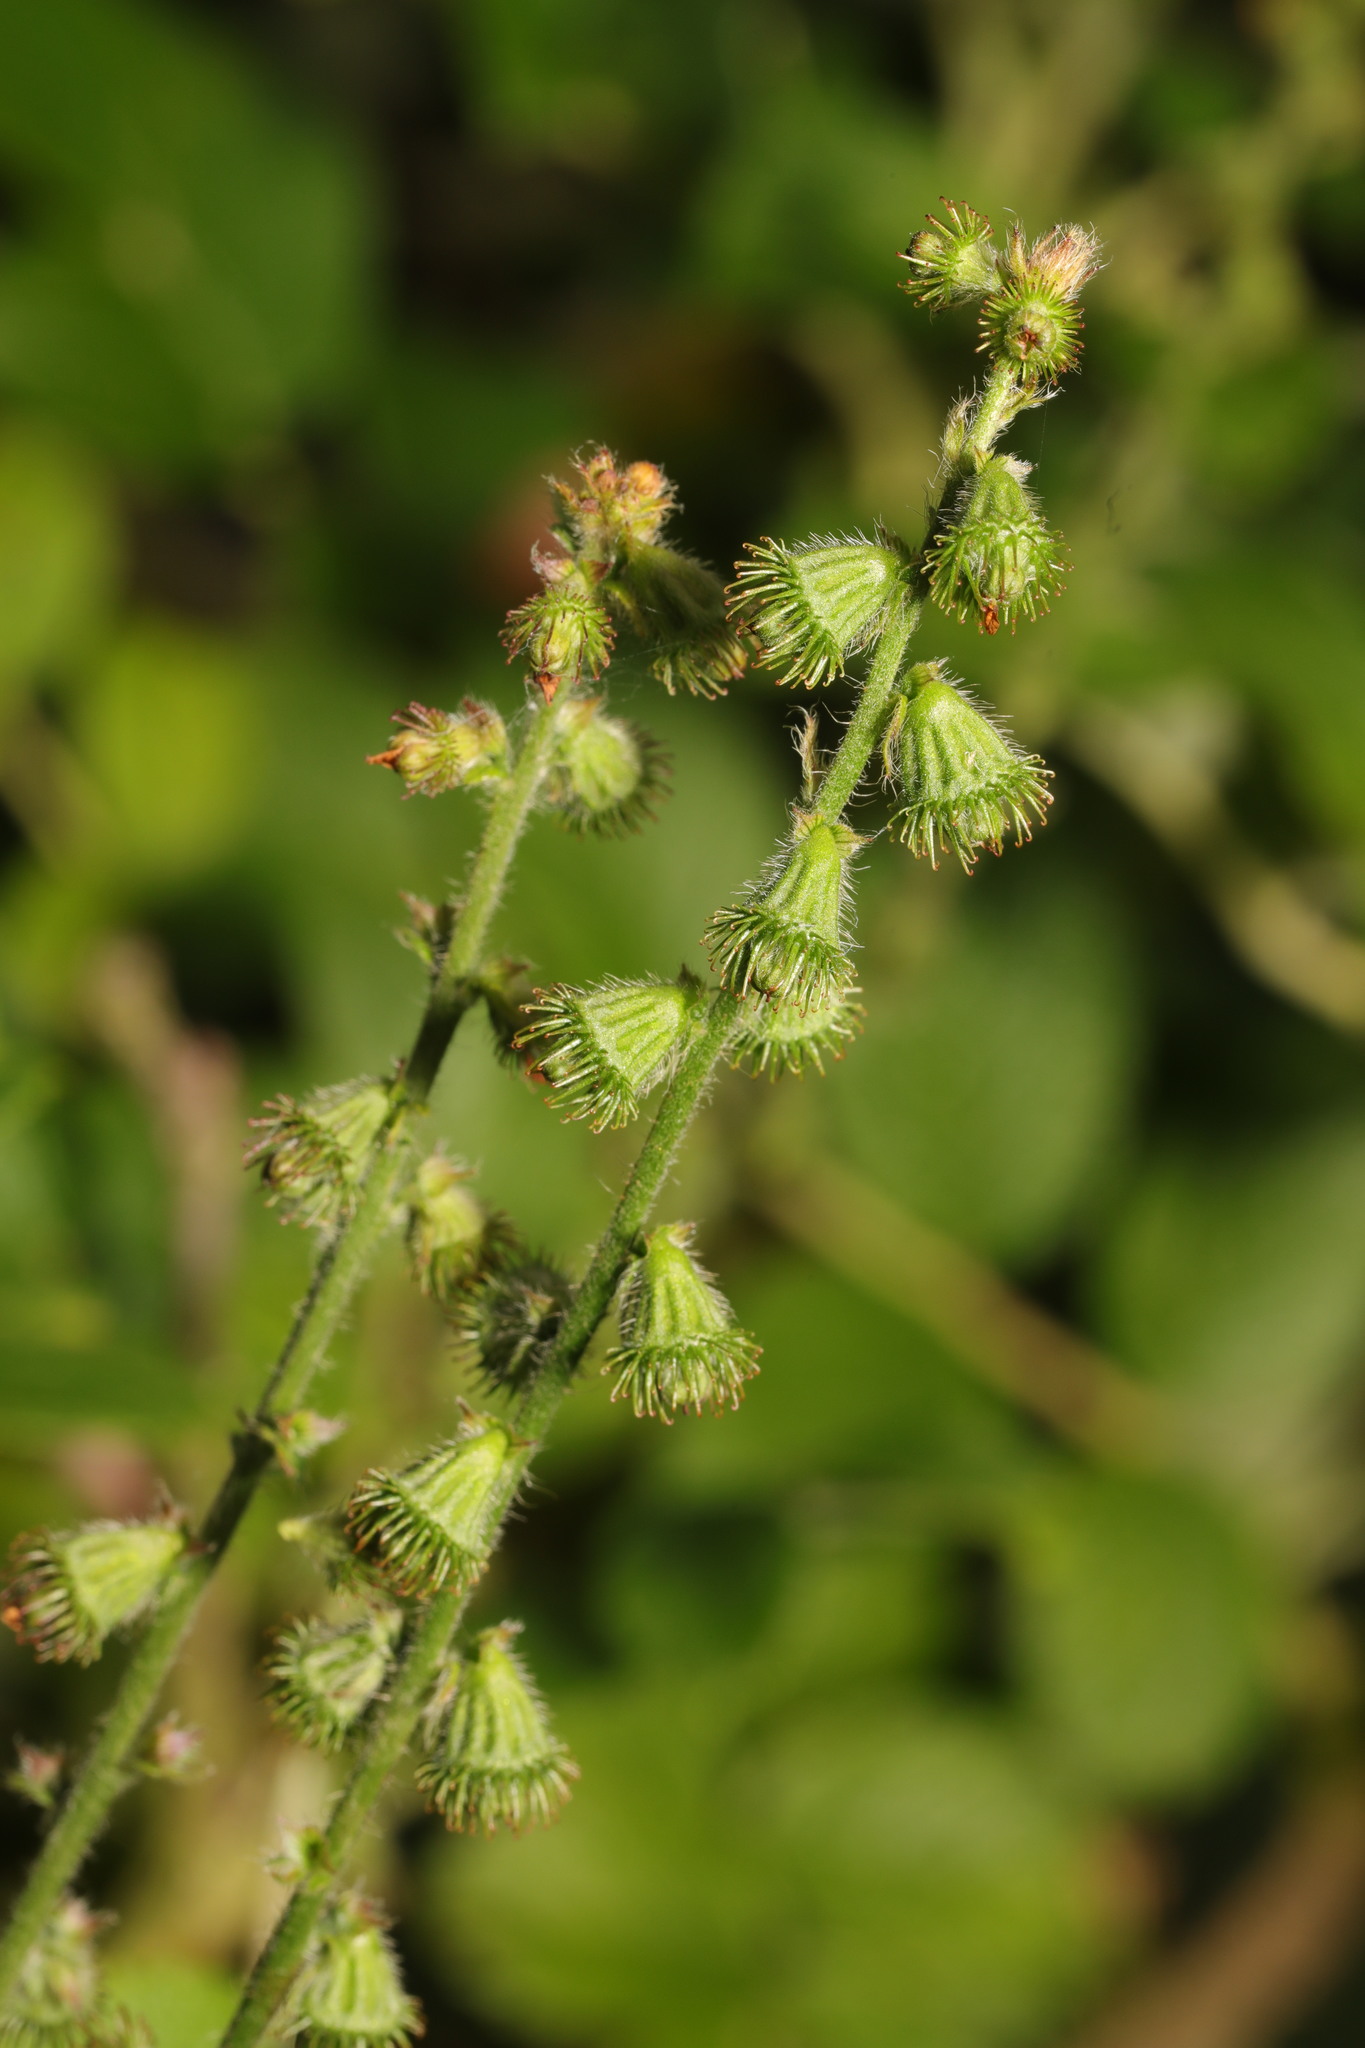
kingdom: Plantae
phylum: Tracheophyta
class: Magnoliopsida
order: Rosales
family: Rosaceae
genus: Agrimonia
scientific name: Agrimonia eupatoria
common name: Agrimony
